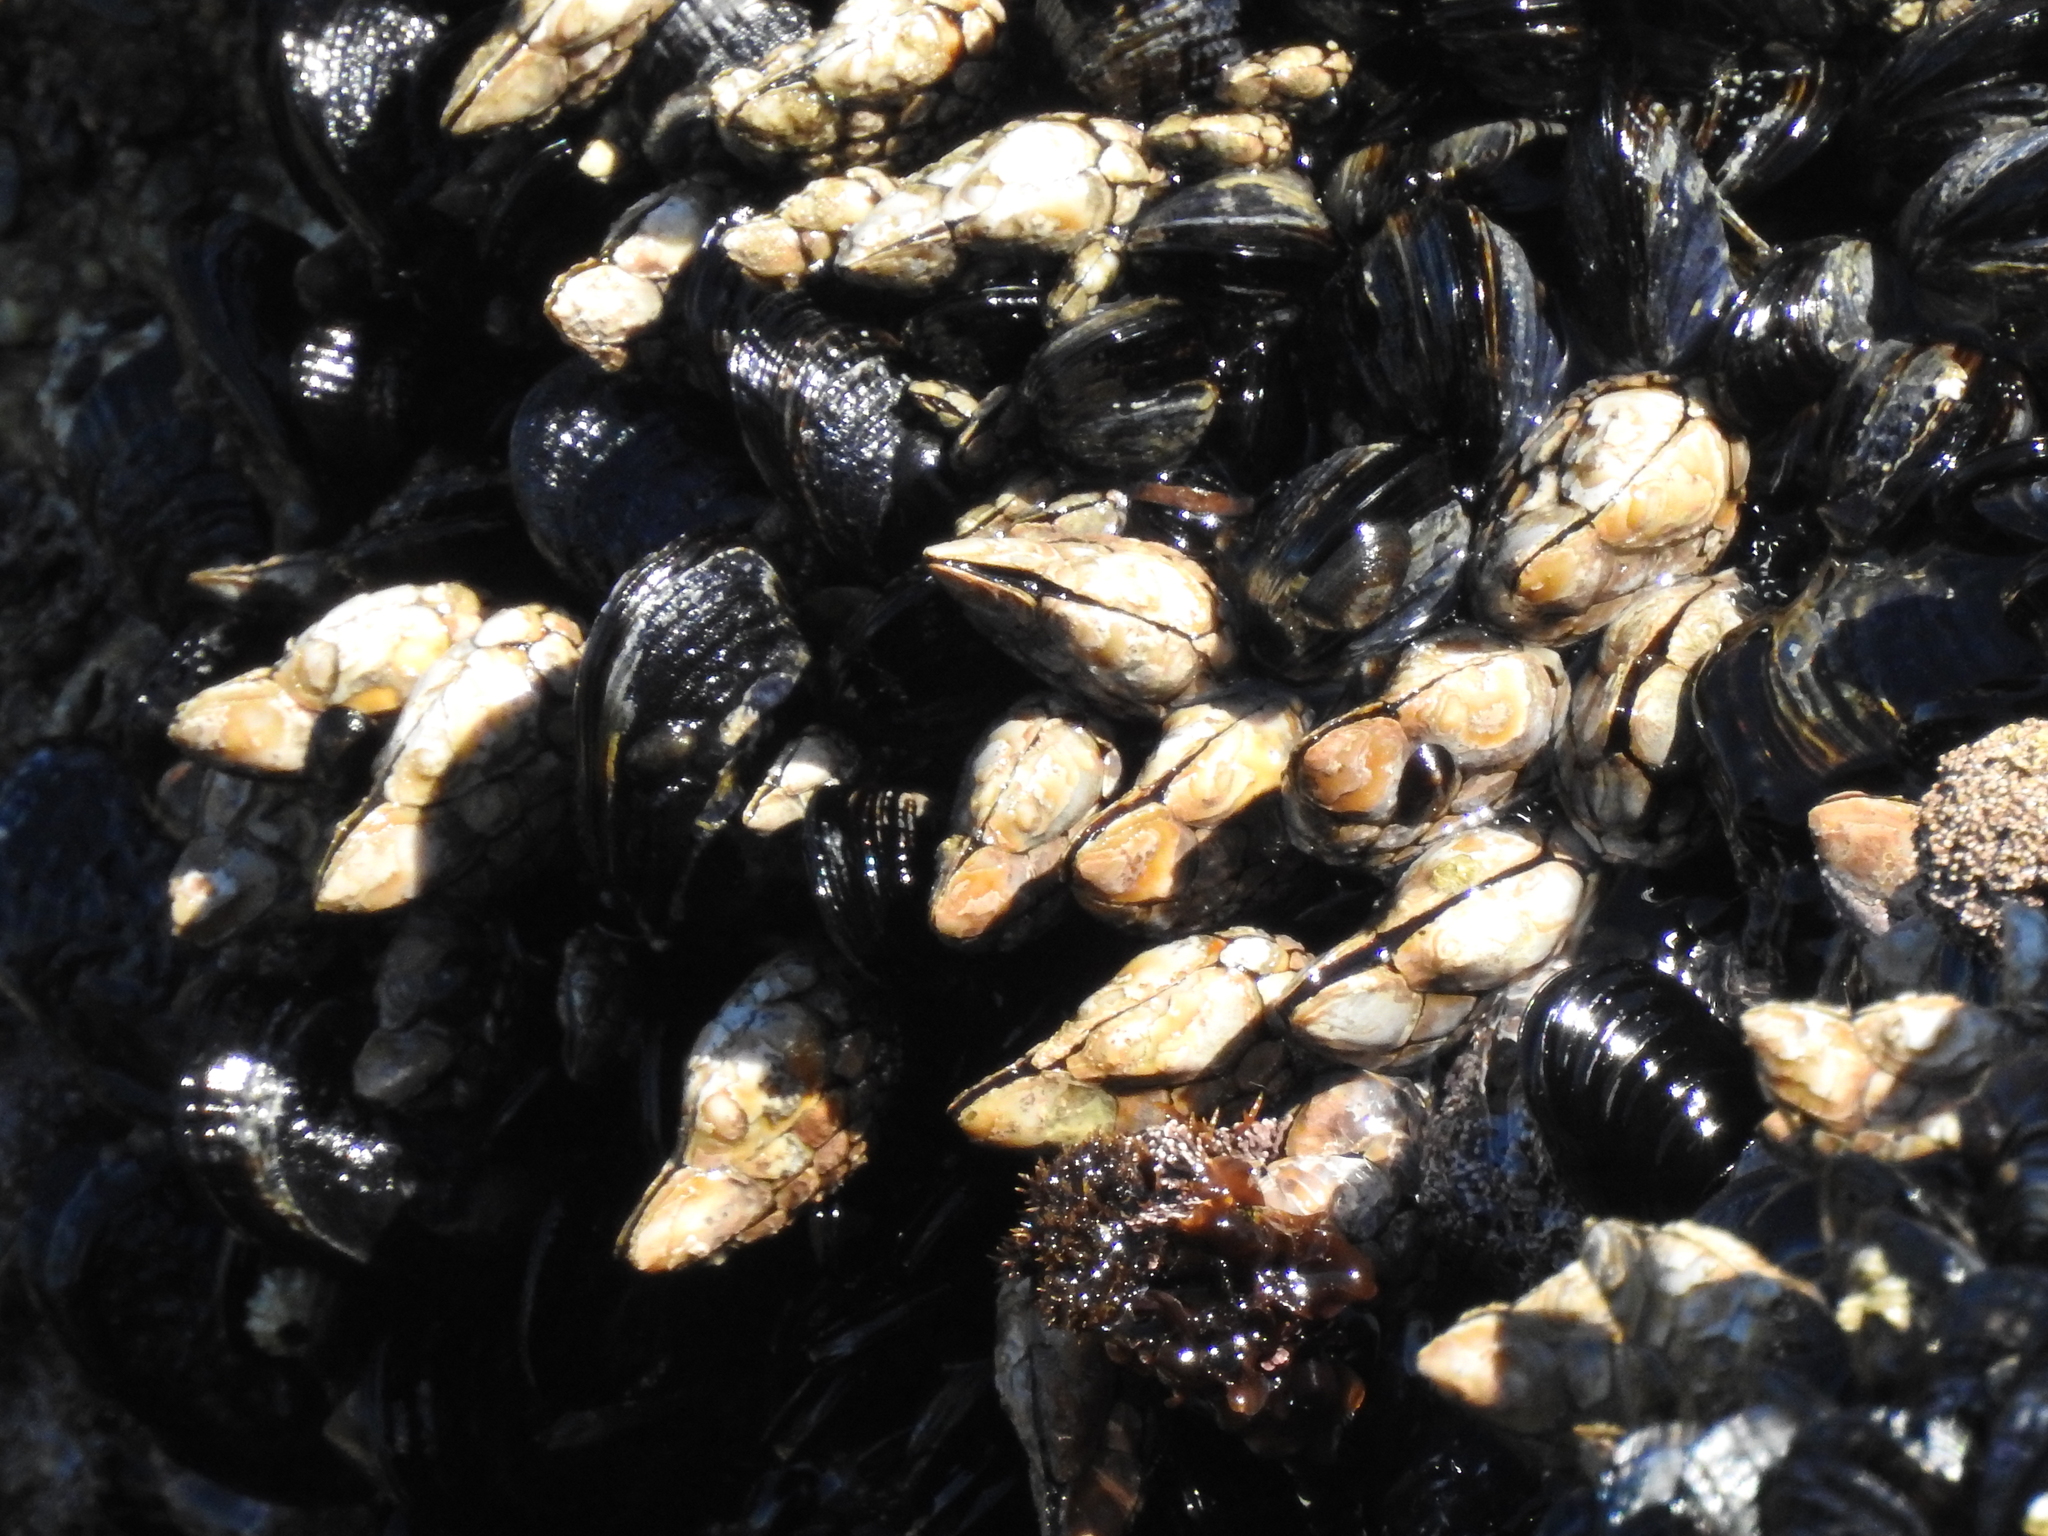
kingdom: Animalia
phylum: Arthropoda
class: Maxillopoda
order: Pedunculata
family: Pollicipedidae
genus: Pollicipes
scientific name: Pollicipes polymerus
